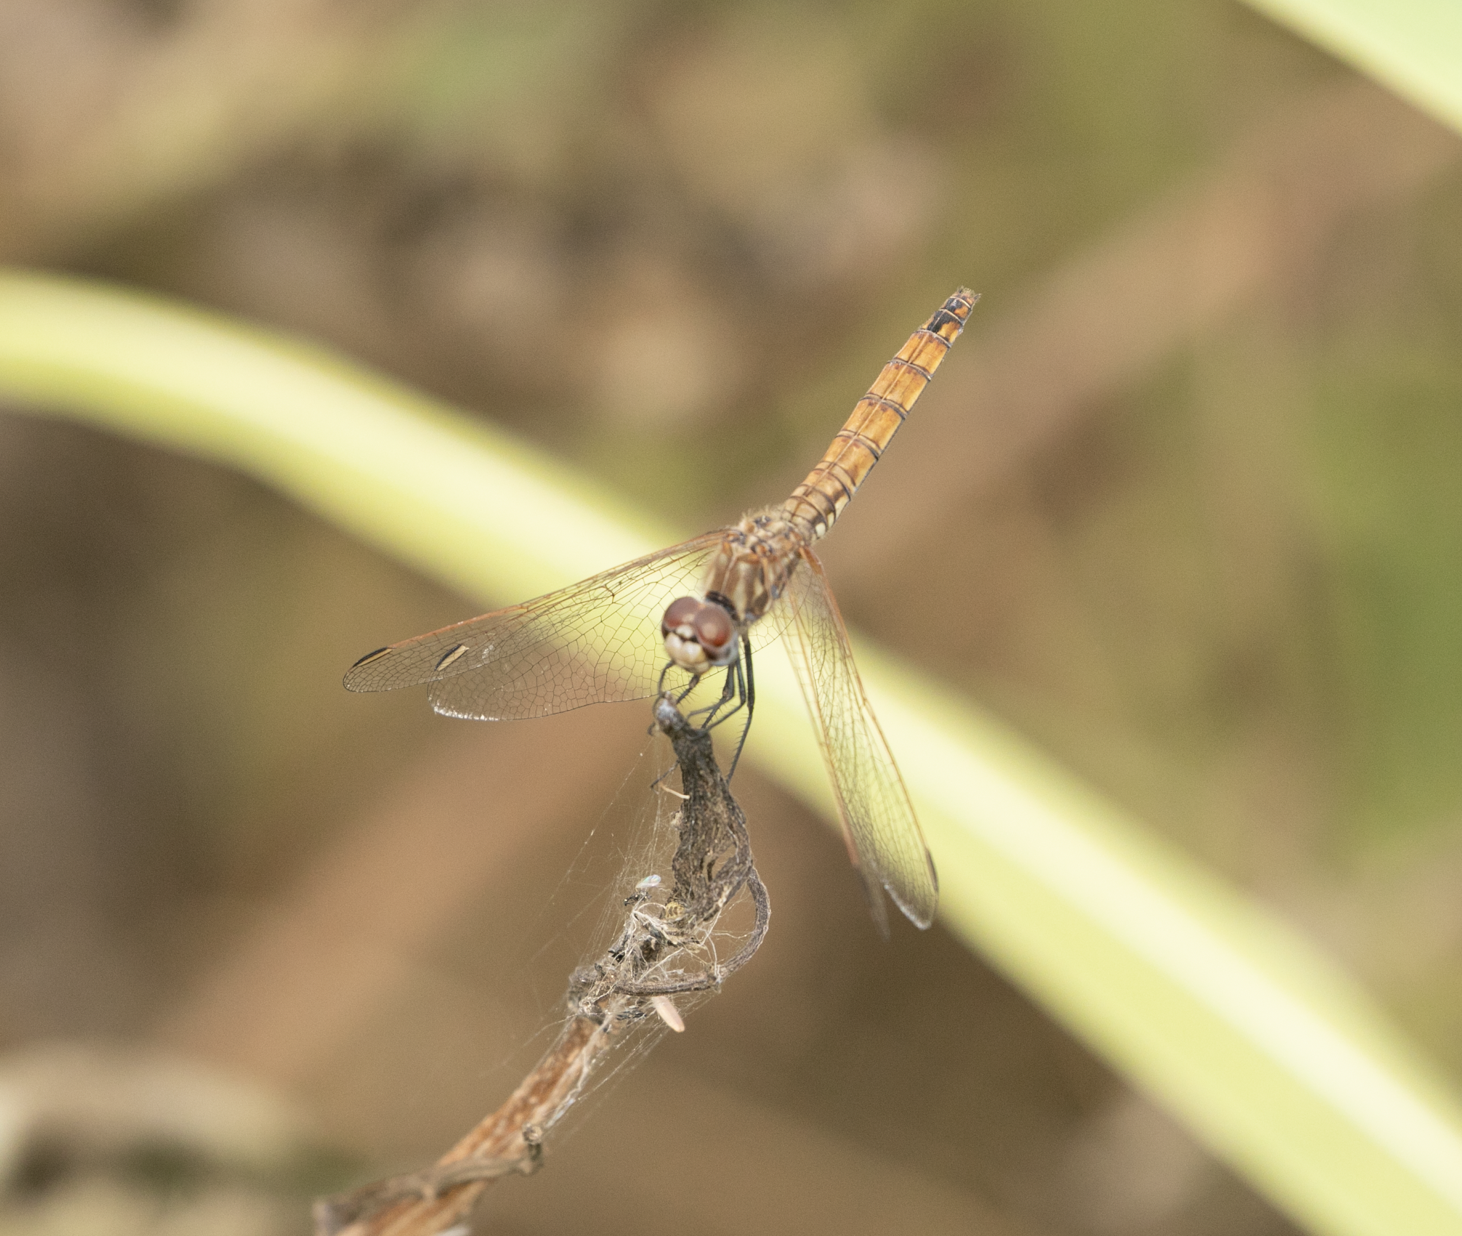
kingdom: Animalia
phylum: Arthropoda
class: Insecta
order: Odonata
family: Libellulidae
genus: Trithemis
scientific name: Trithemis annulata
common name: Violet dropwing
